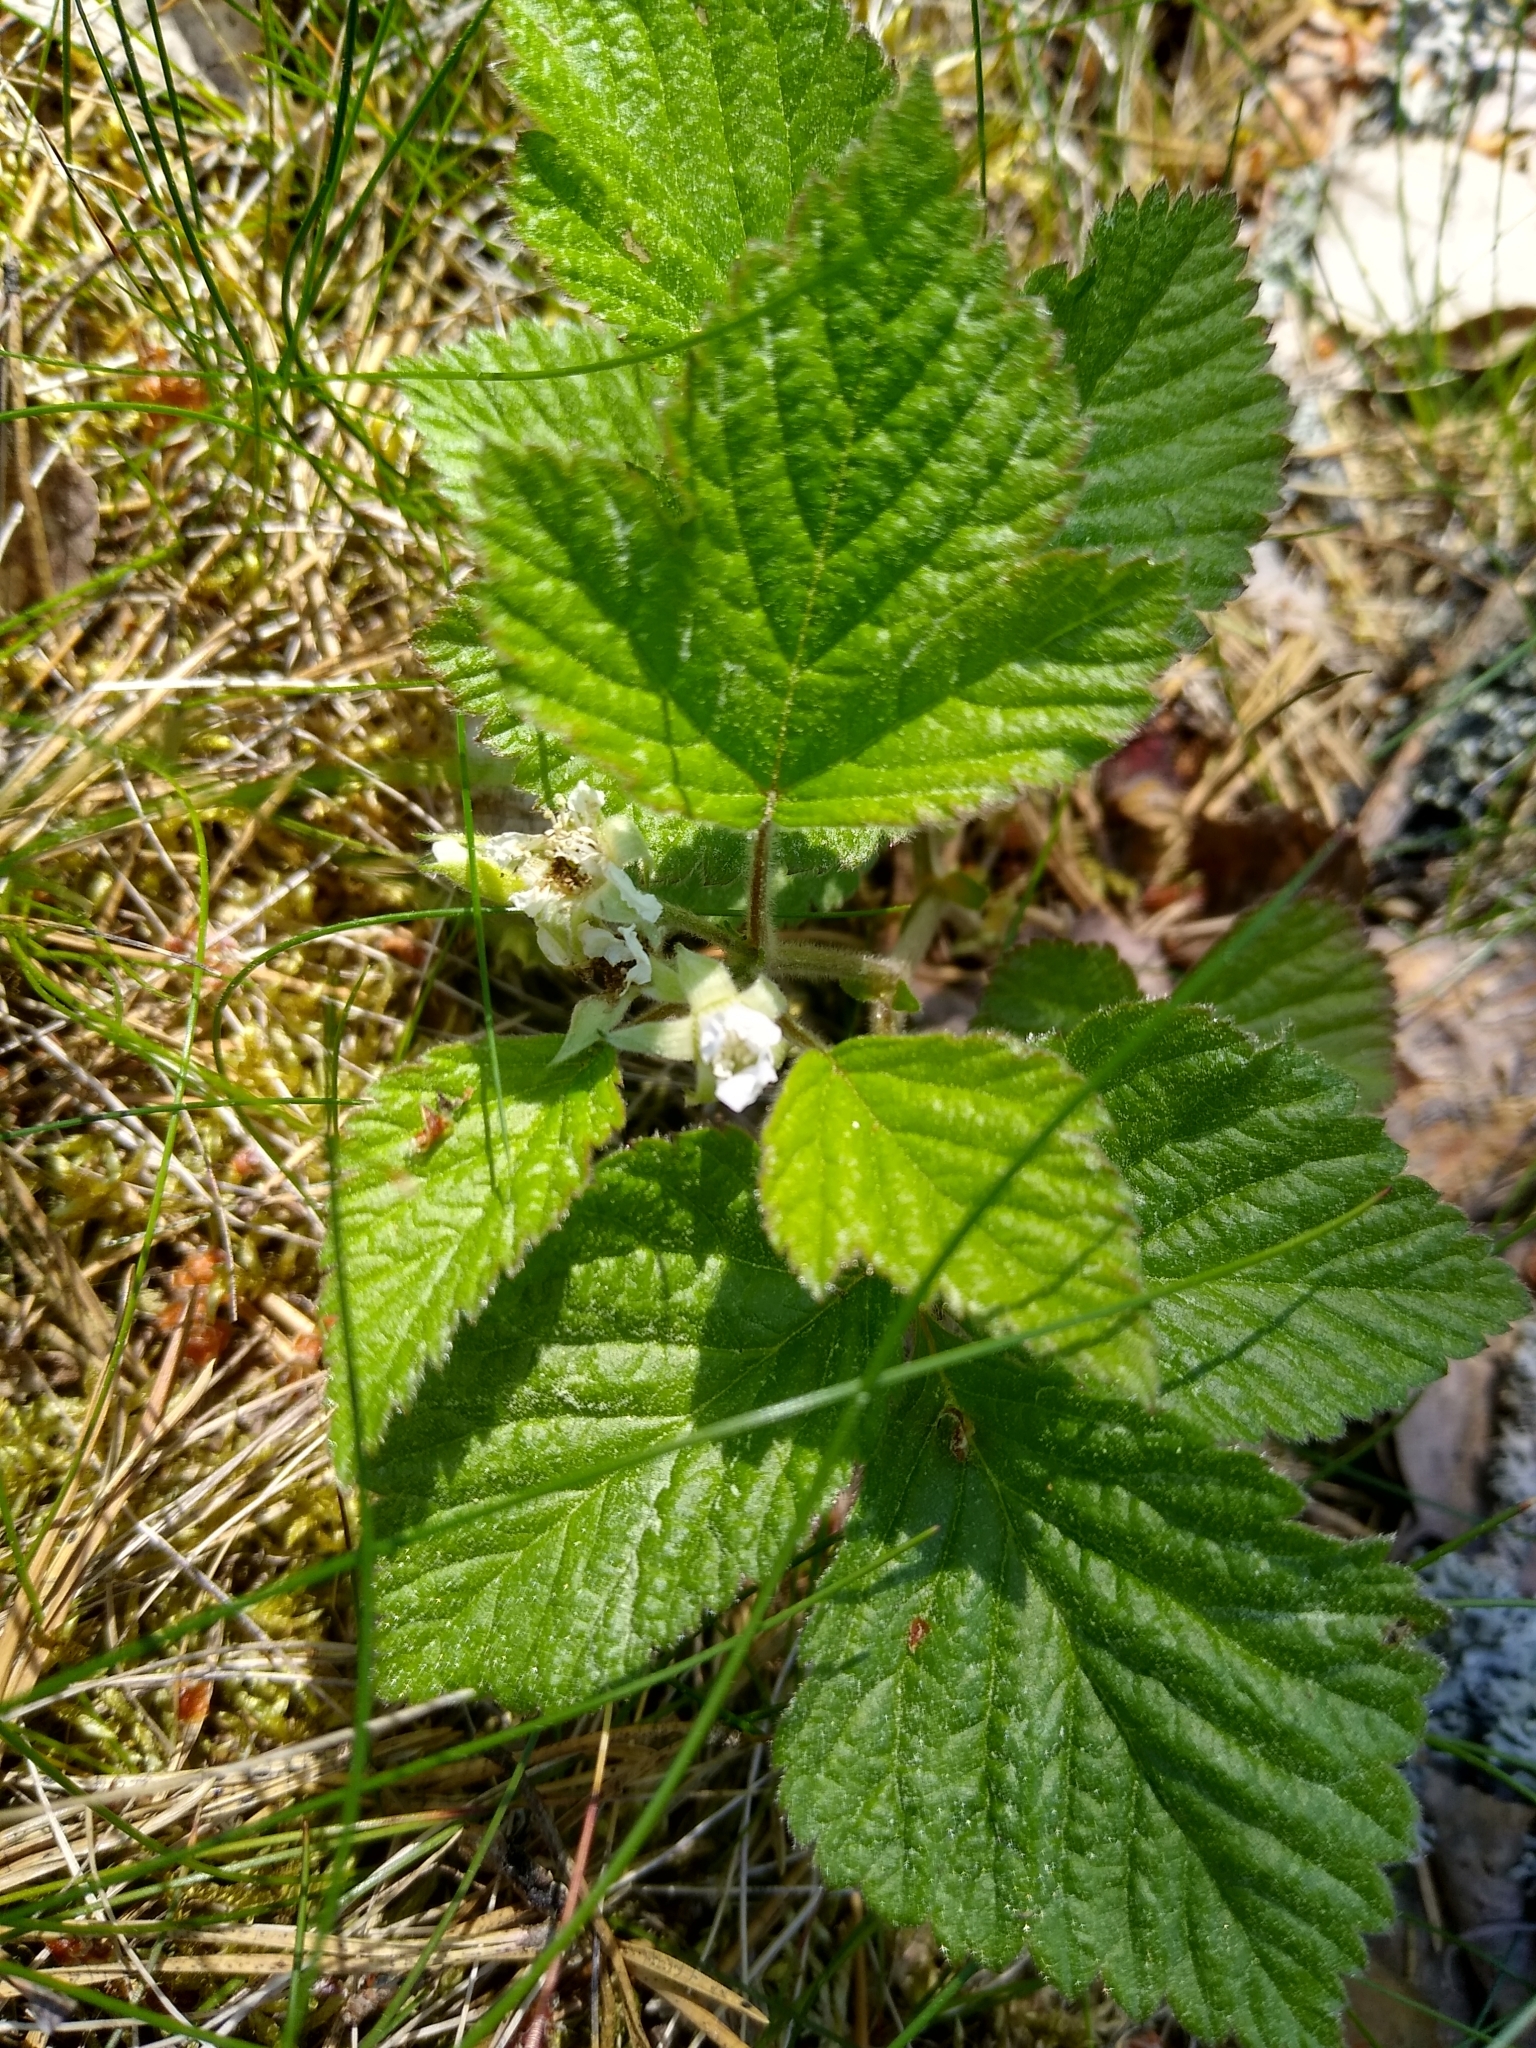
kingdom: Plantae
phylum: Tracheophyta
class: Magnoliopsida
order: Rosales
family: Rosaceae
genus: Rubus
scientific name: Rubus saxatilis
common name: Stone bramble
